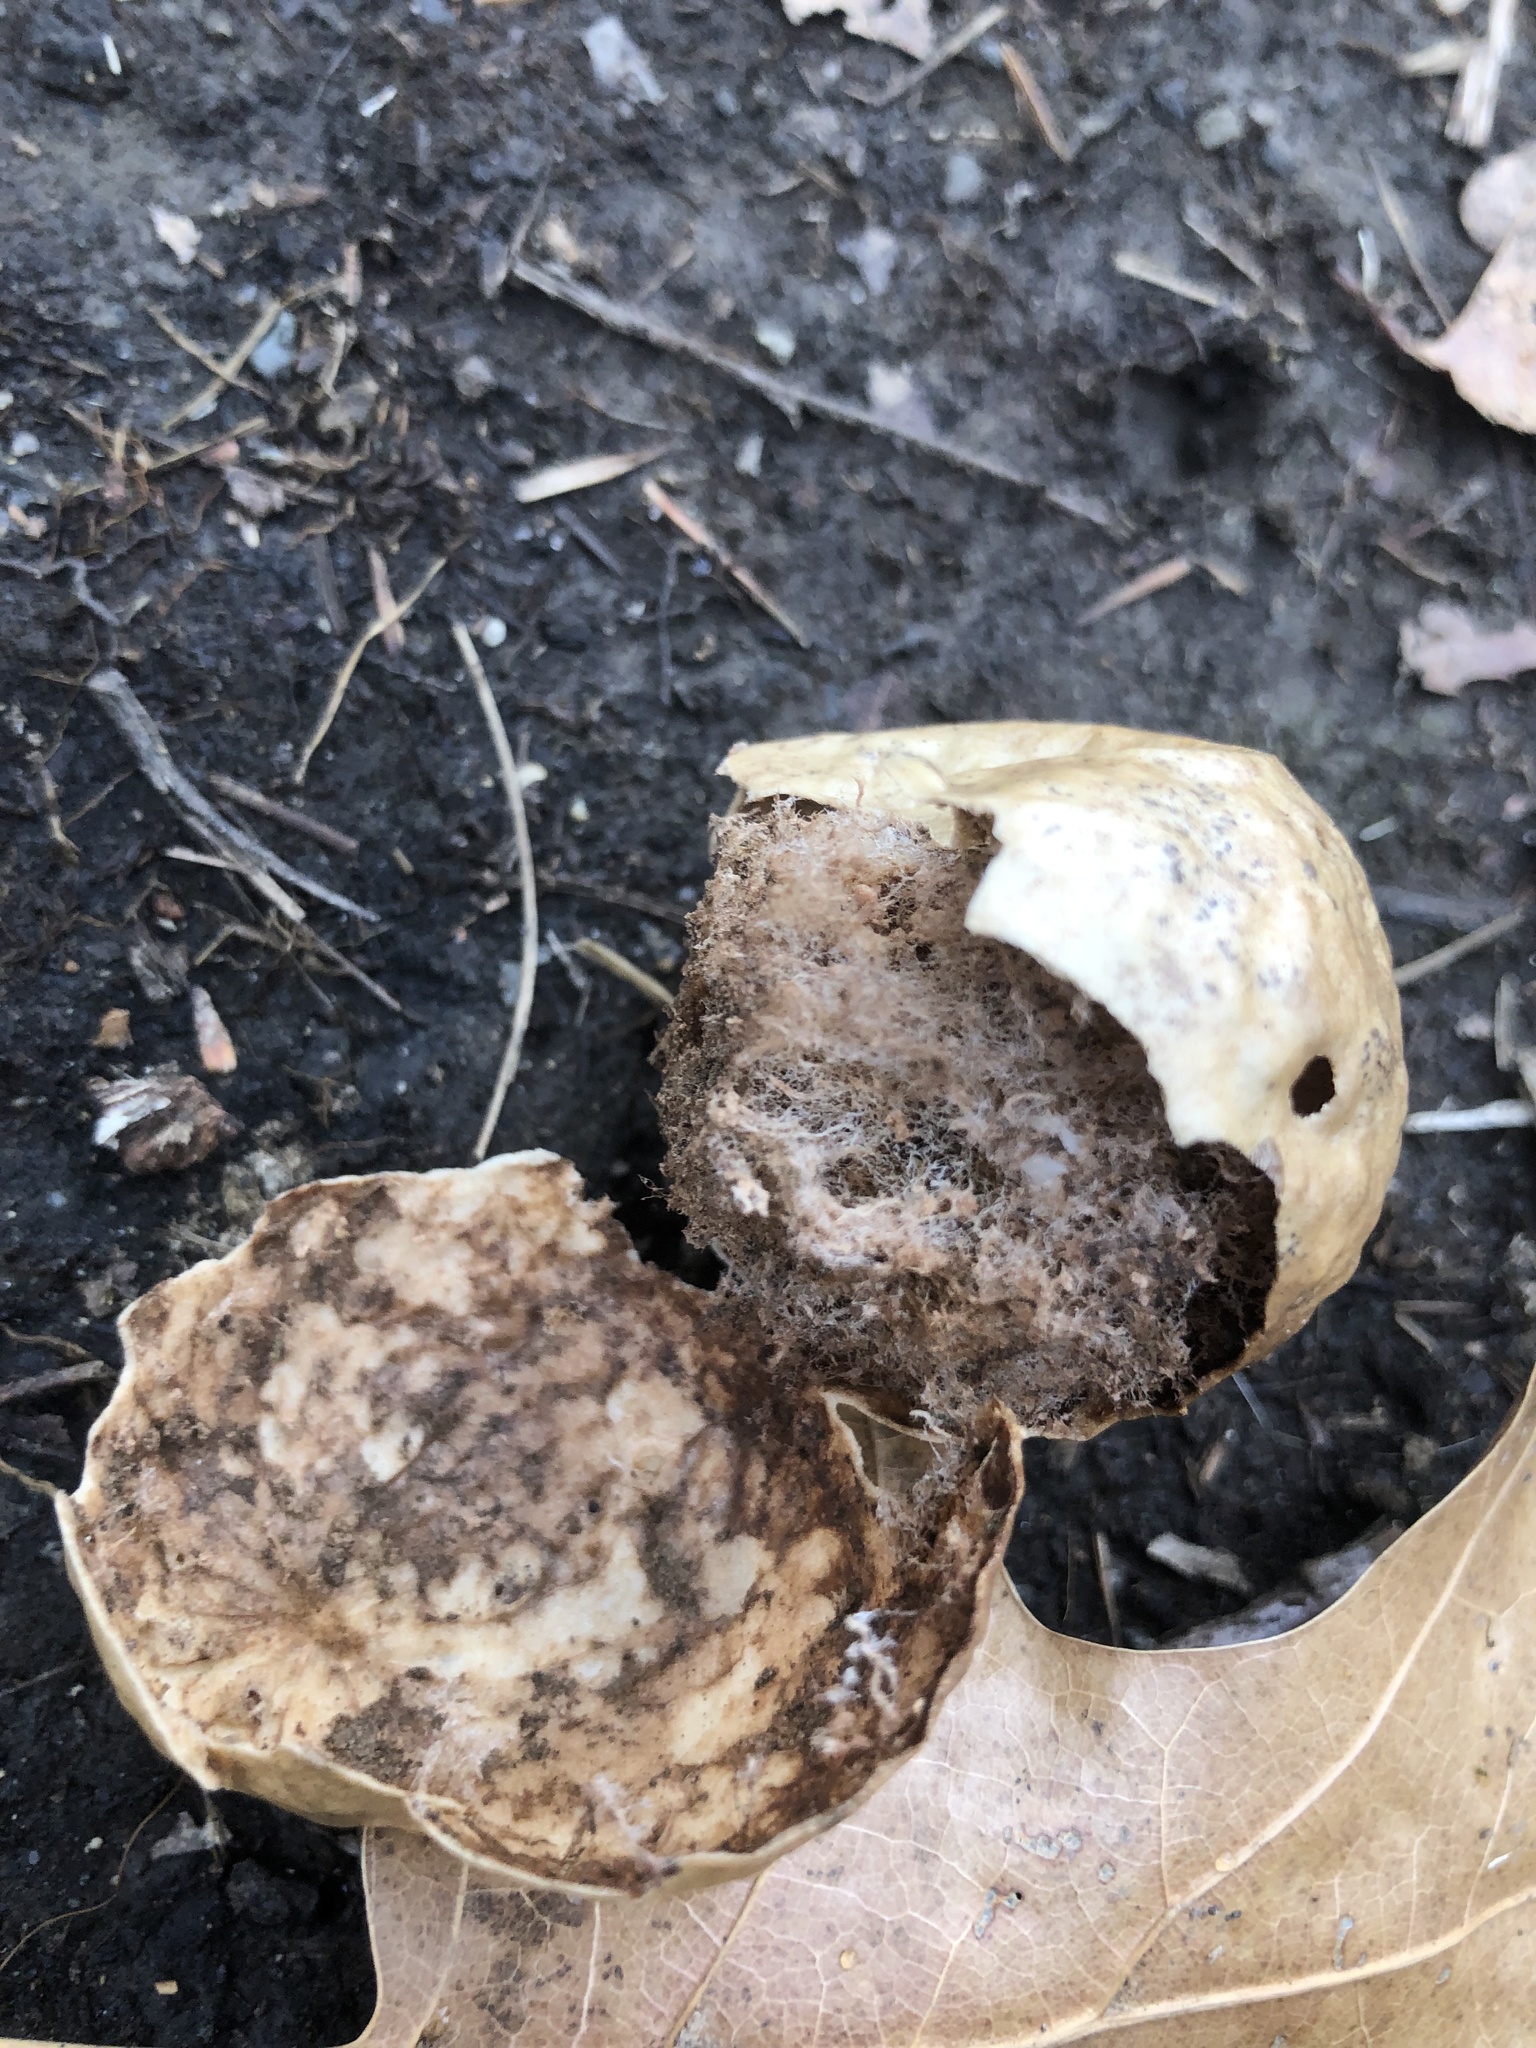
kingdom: Animalia
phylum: Arthropoda
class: Insecta
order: Hymenoptera
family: Cynipidae
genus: Amphibolips
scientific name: Amphibolips
